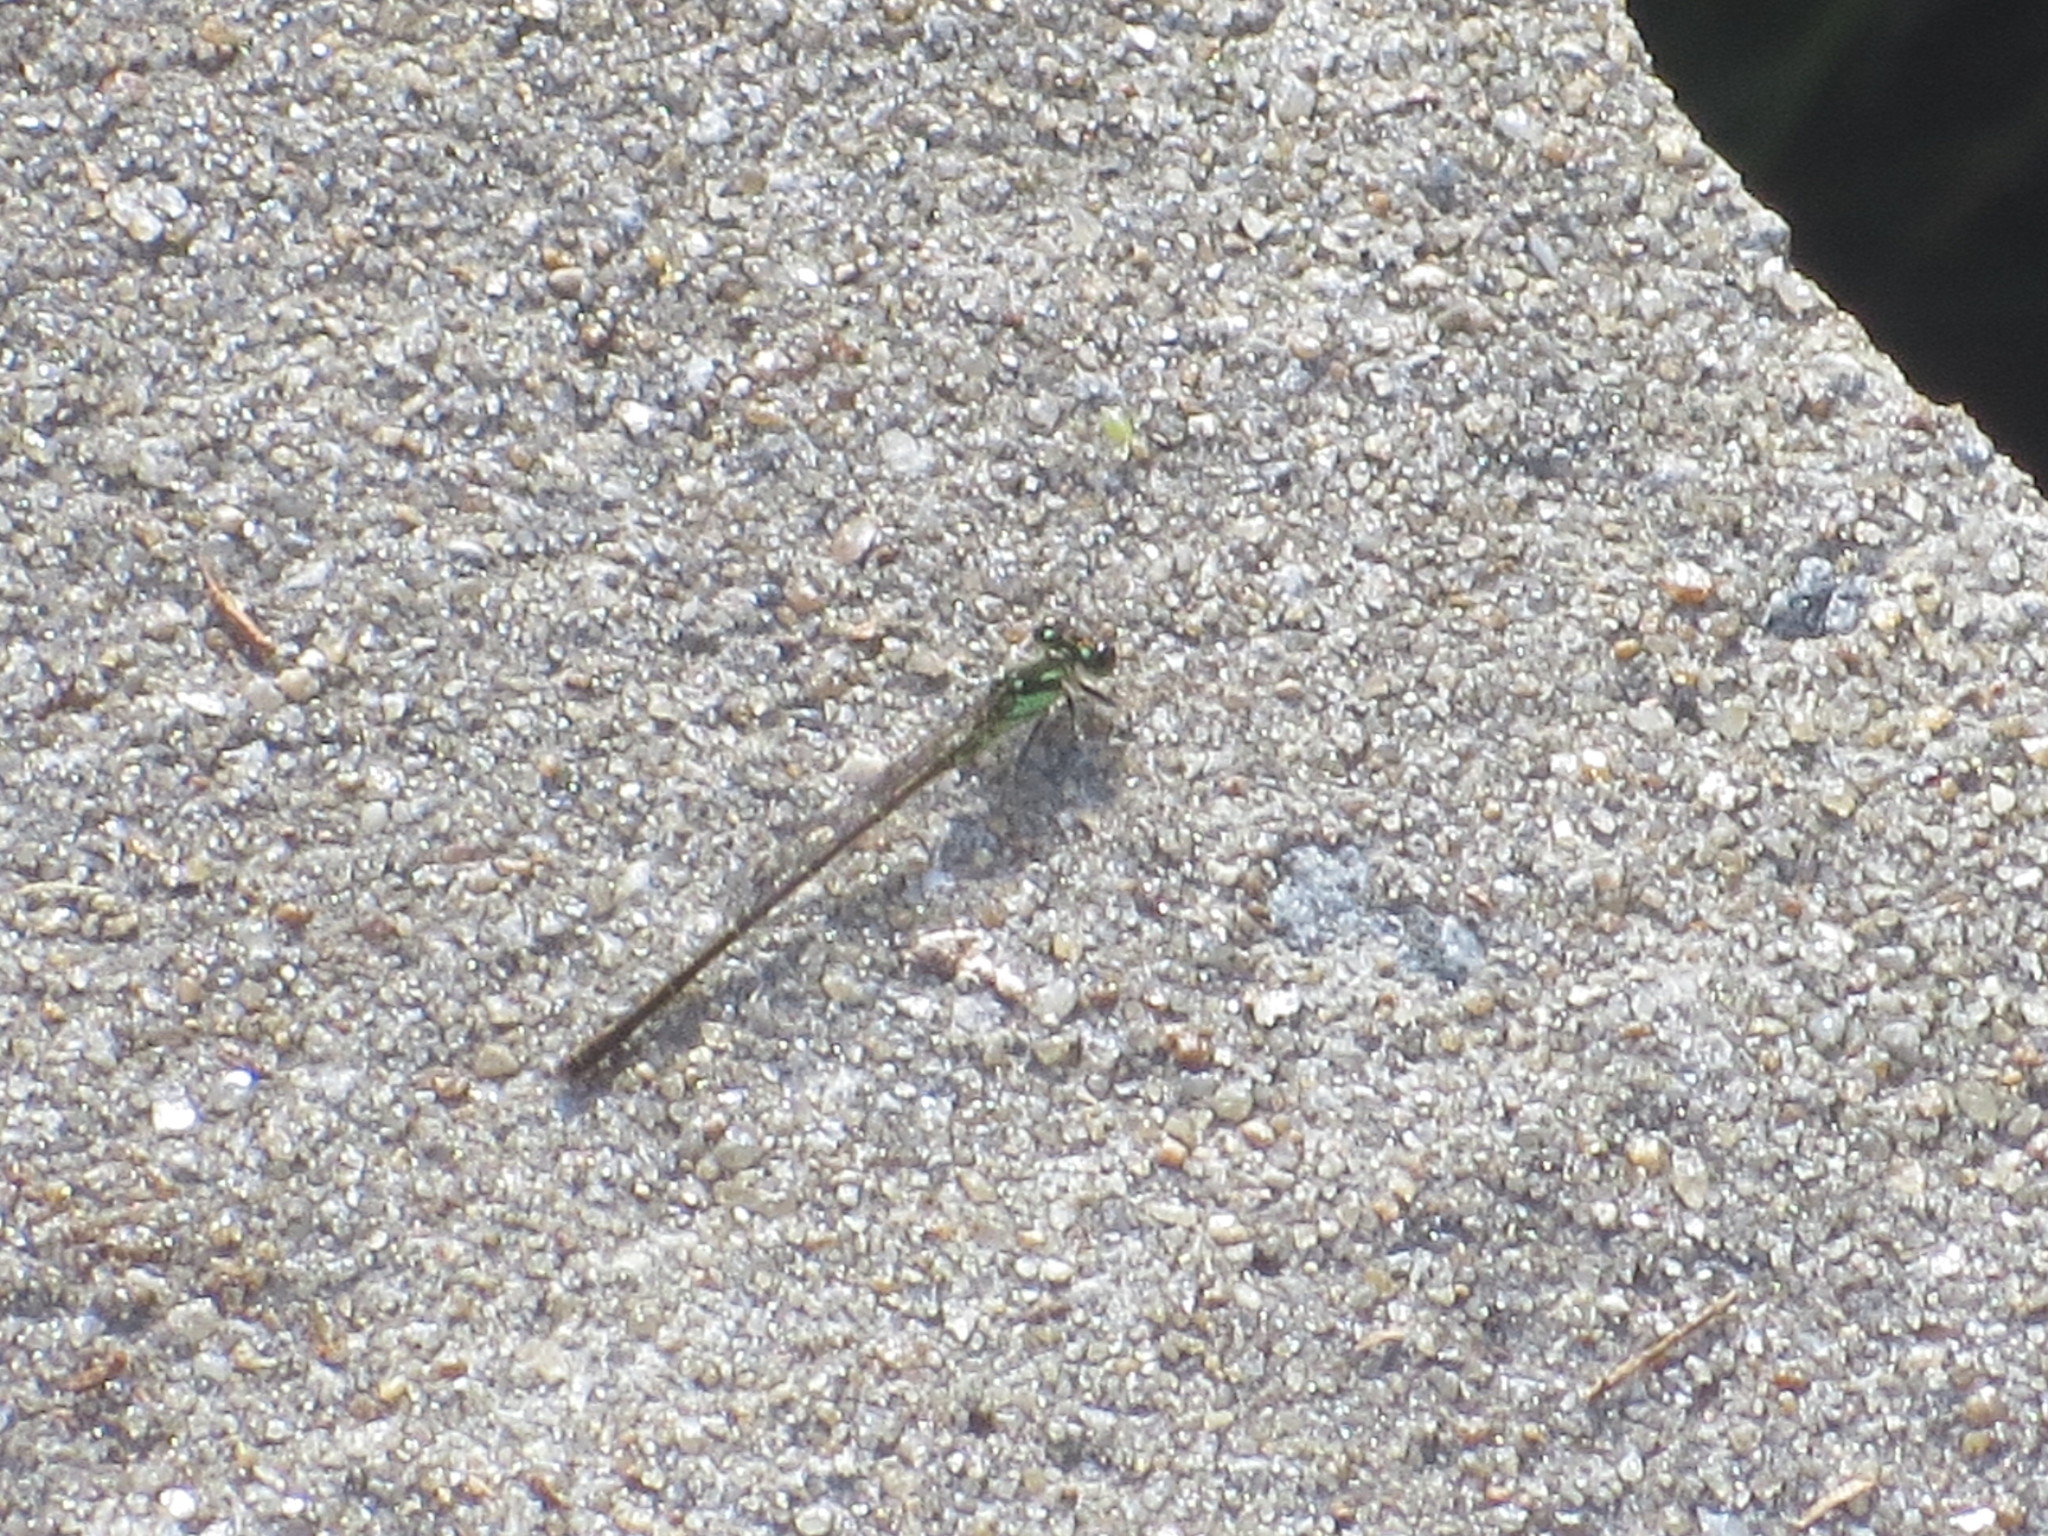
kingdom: Animalia
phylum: Arthropoda
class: Insecta
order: Odonata
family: Coenagrionidae
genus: Ischnura
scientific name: Ischnura posita
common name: Fragile forktail
